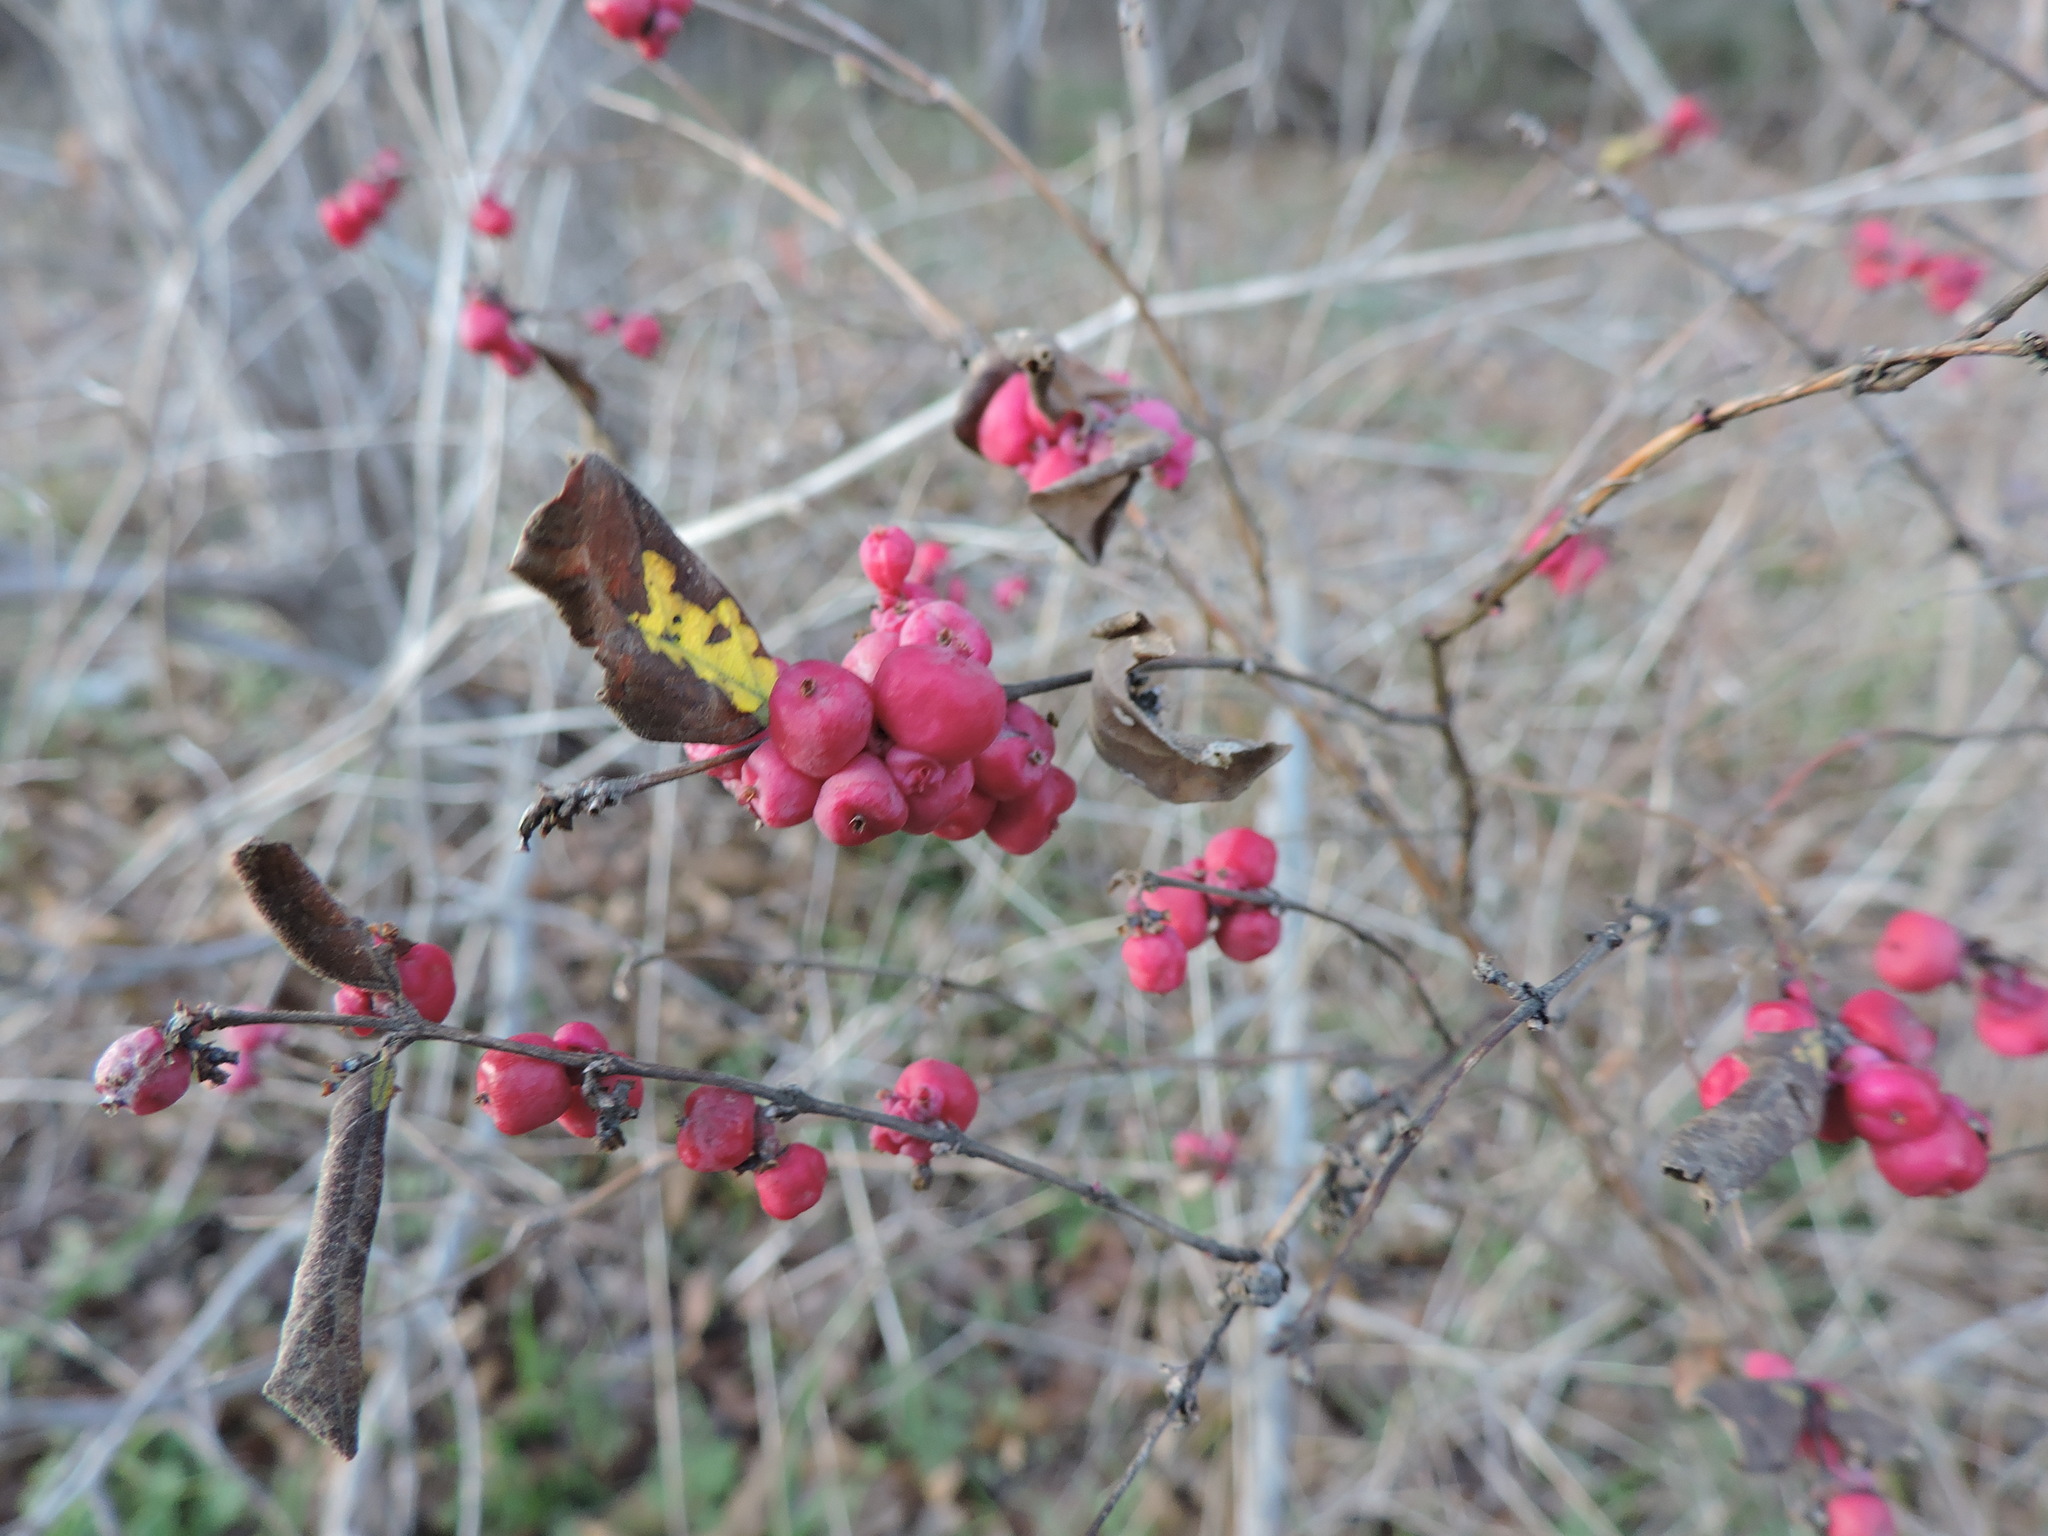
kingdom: Plantae
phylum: Tracheophyta
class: Magnoliopsida
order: Dipsacales
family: Caprifoliaceae
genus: Symphoricarpos
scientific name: Symphoricarpos orbiculatus
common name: Coralberry
